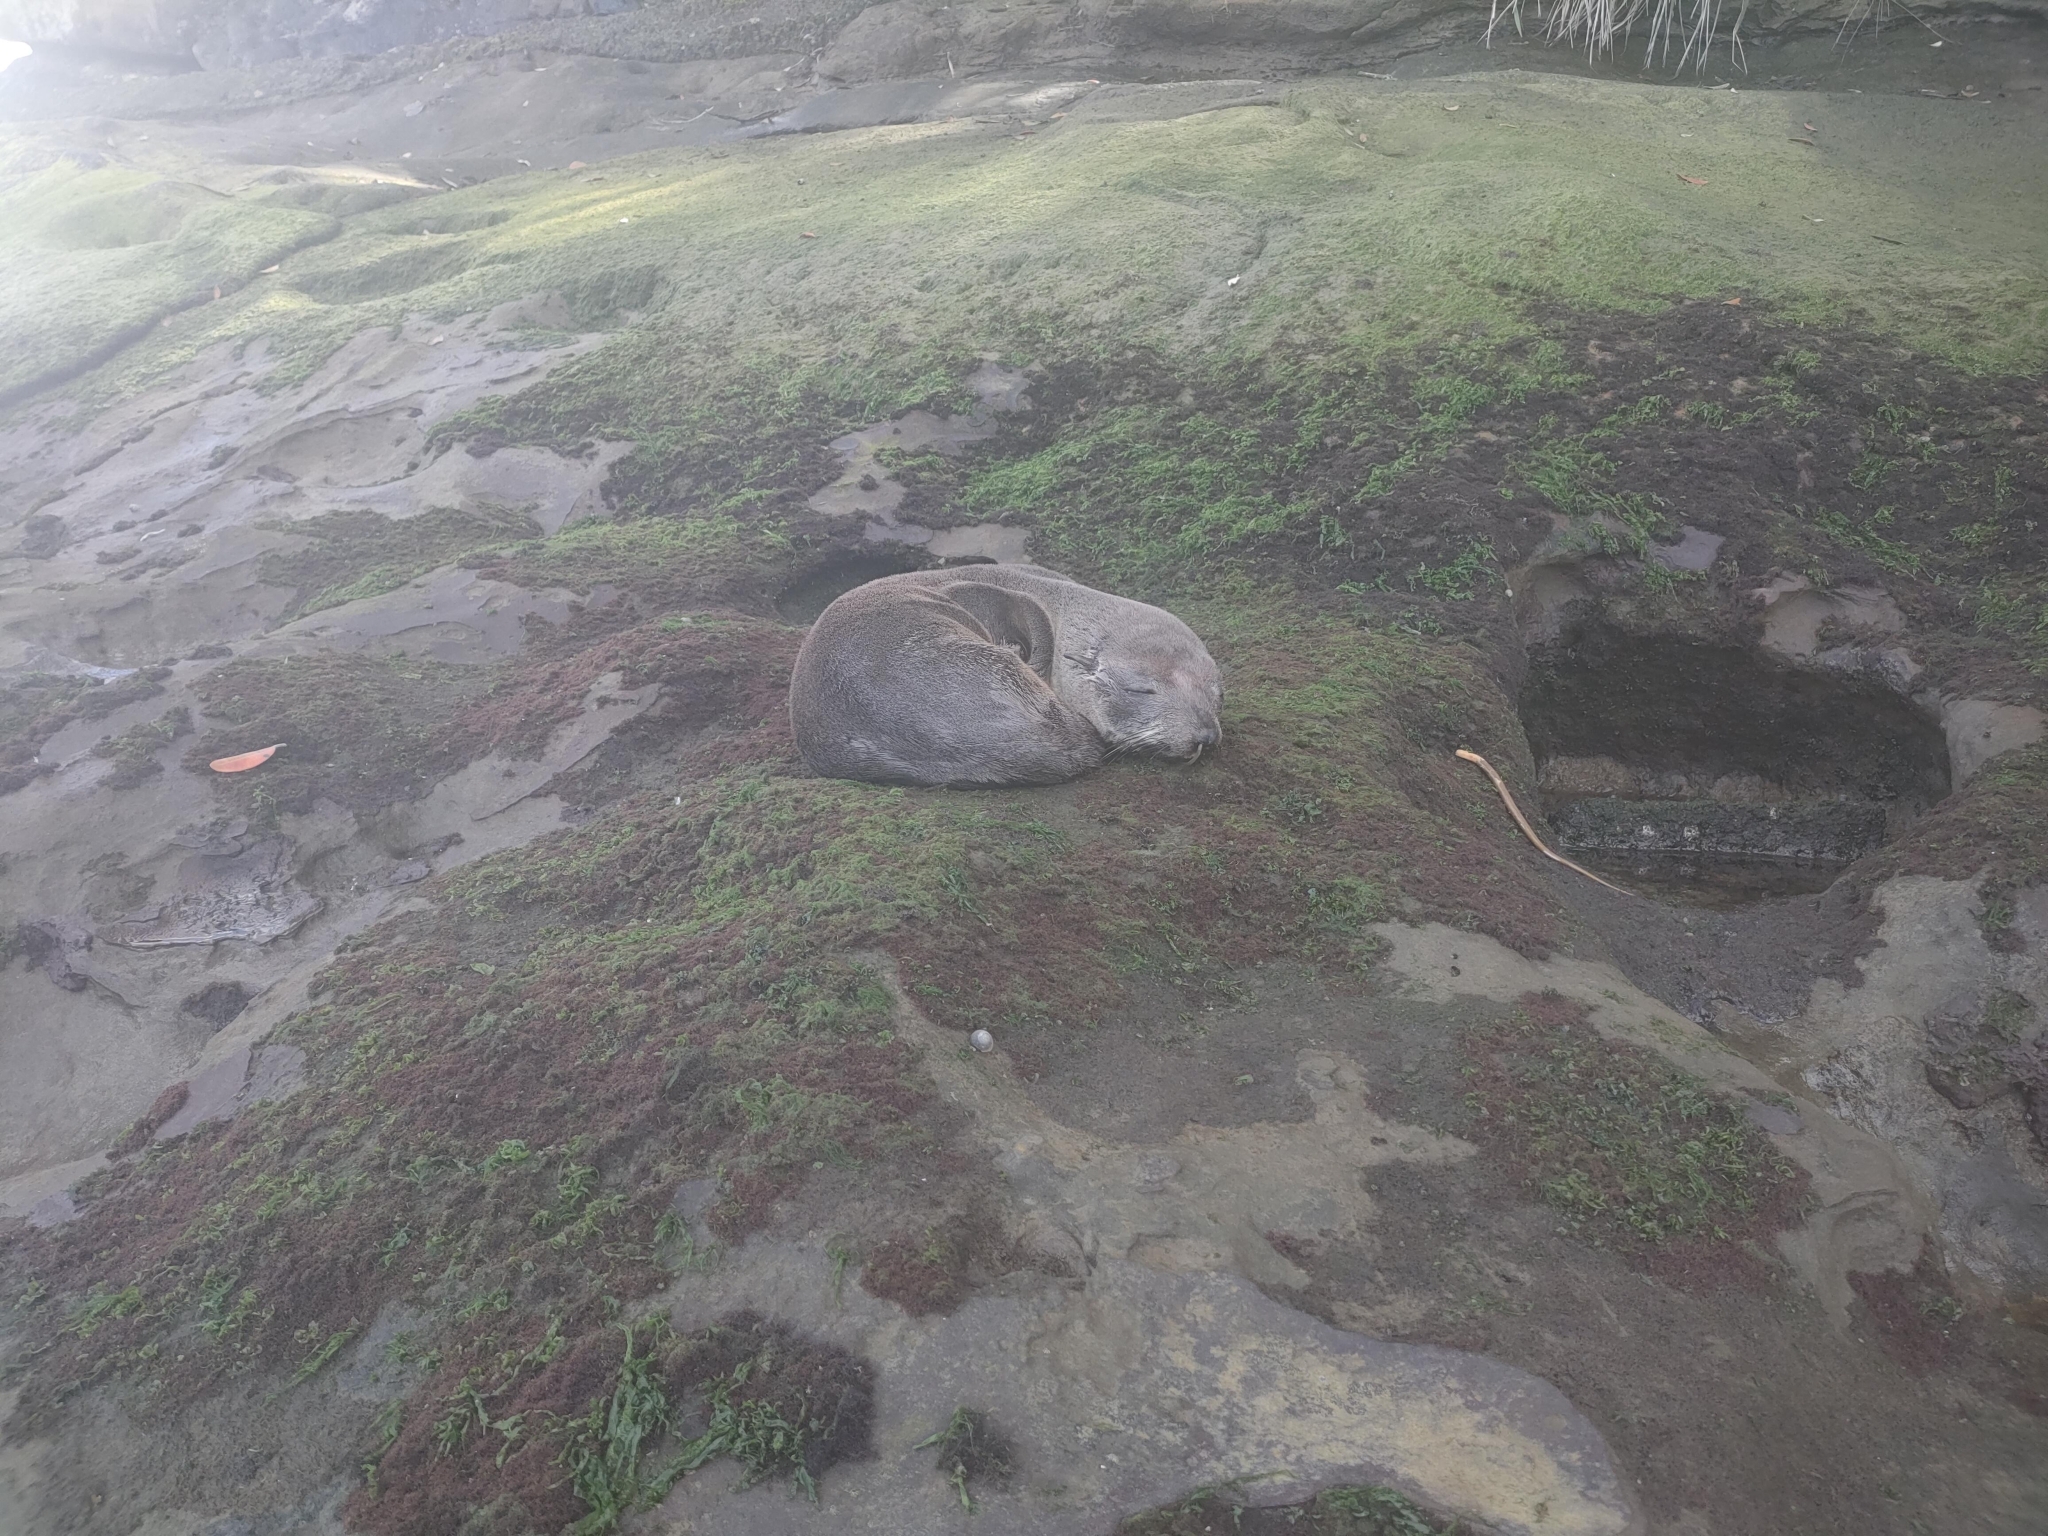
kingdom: Animalia
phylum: Chordata
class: Mammalia
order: Carnivora
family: Otariidae
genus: Arctocephalus
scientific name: Arctocephalus forsteri
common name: New zealand fur seal
